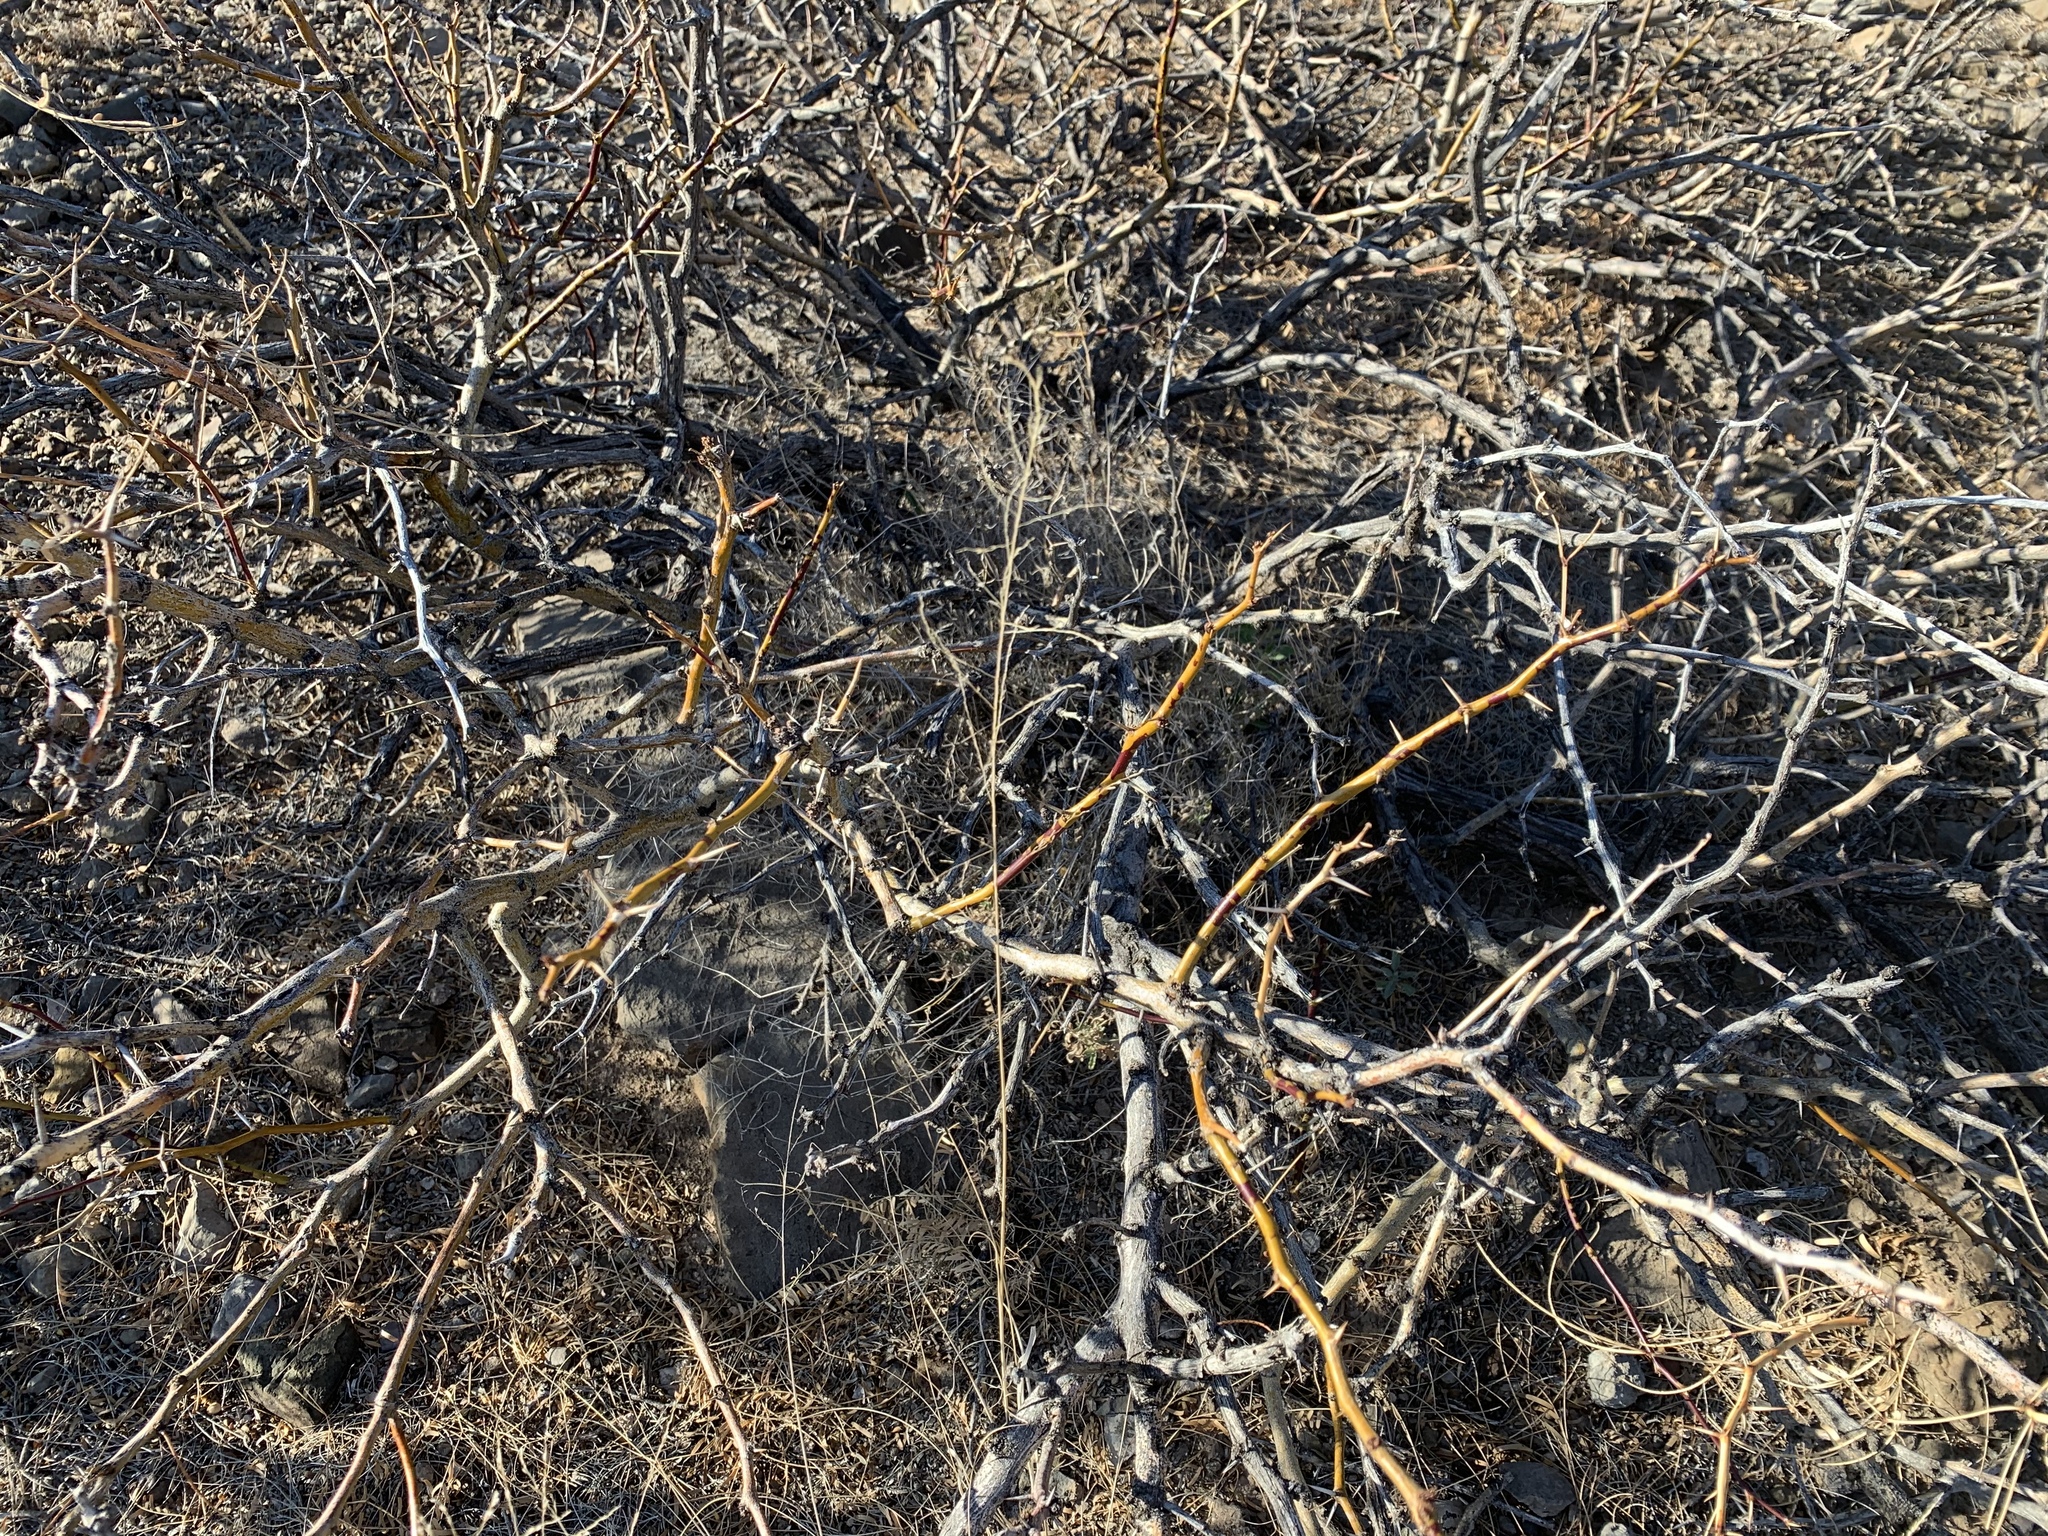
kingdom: Plantae
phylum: Tracheophyta
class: Magnoliopsida
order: Fabales
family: Fabaceae
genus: Prosopis
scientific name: Prosopis glandulosa
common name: Honey mesquite
